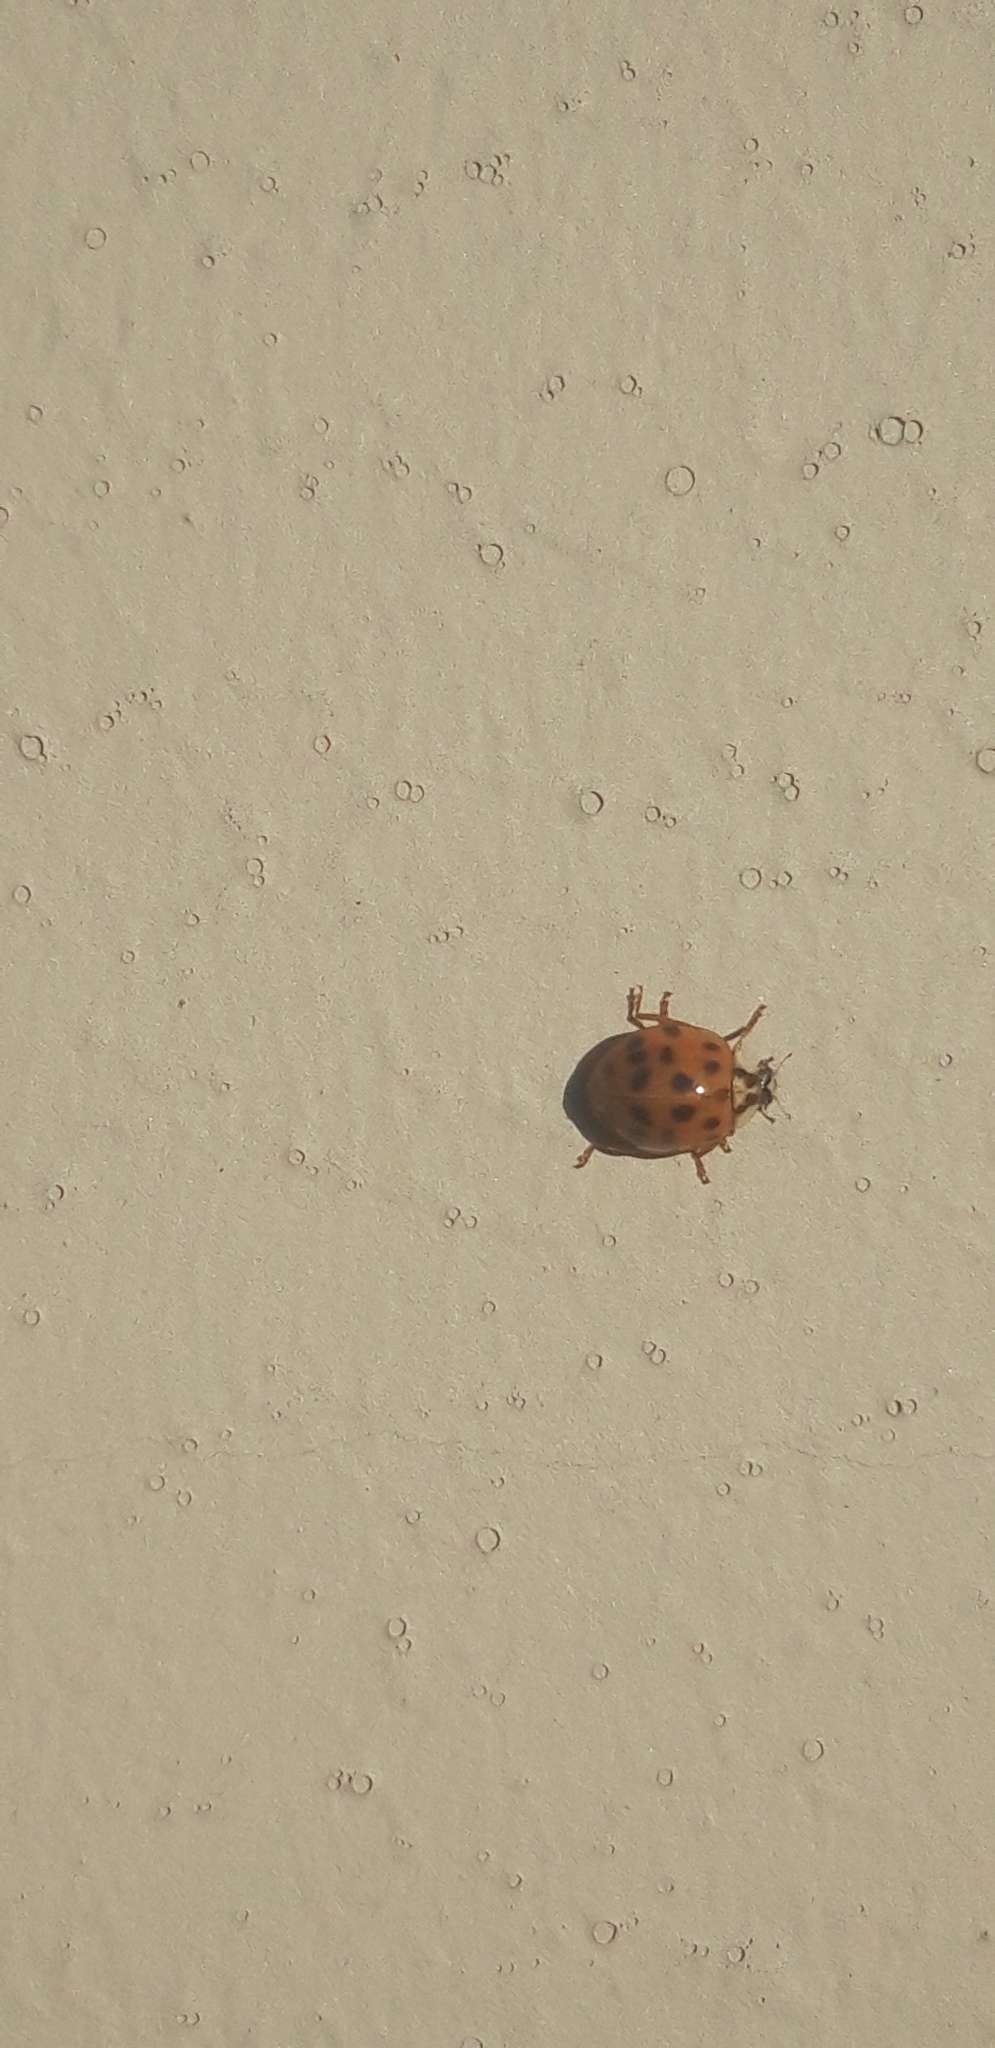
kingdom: Animalia
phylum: Arthropoda
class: Insecta
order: Coleoptera
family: Coccinellidae
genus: Harmonia
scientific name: Harmonia axyridis
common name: Harlequin ladybird
